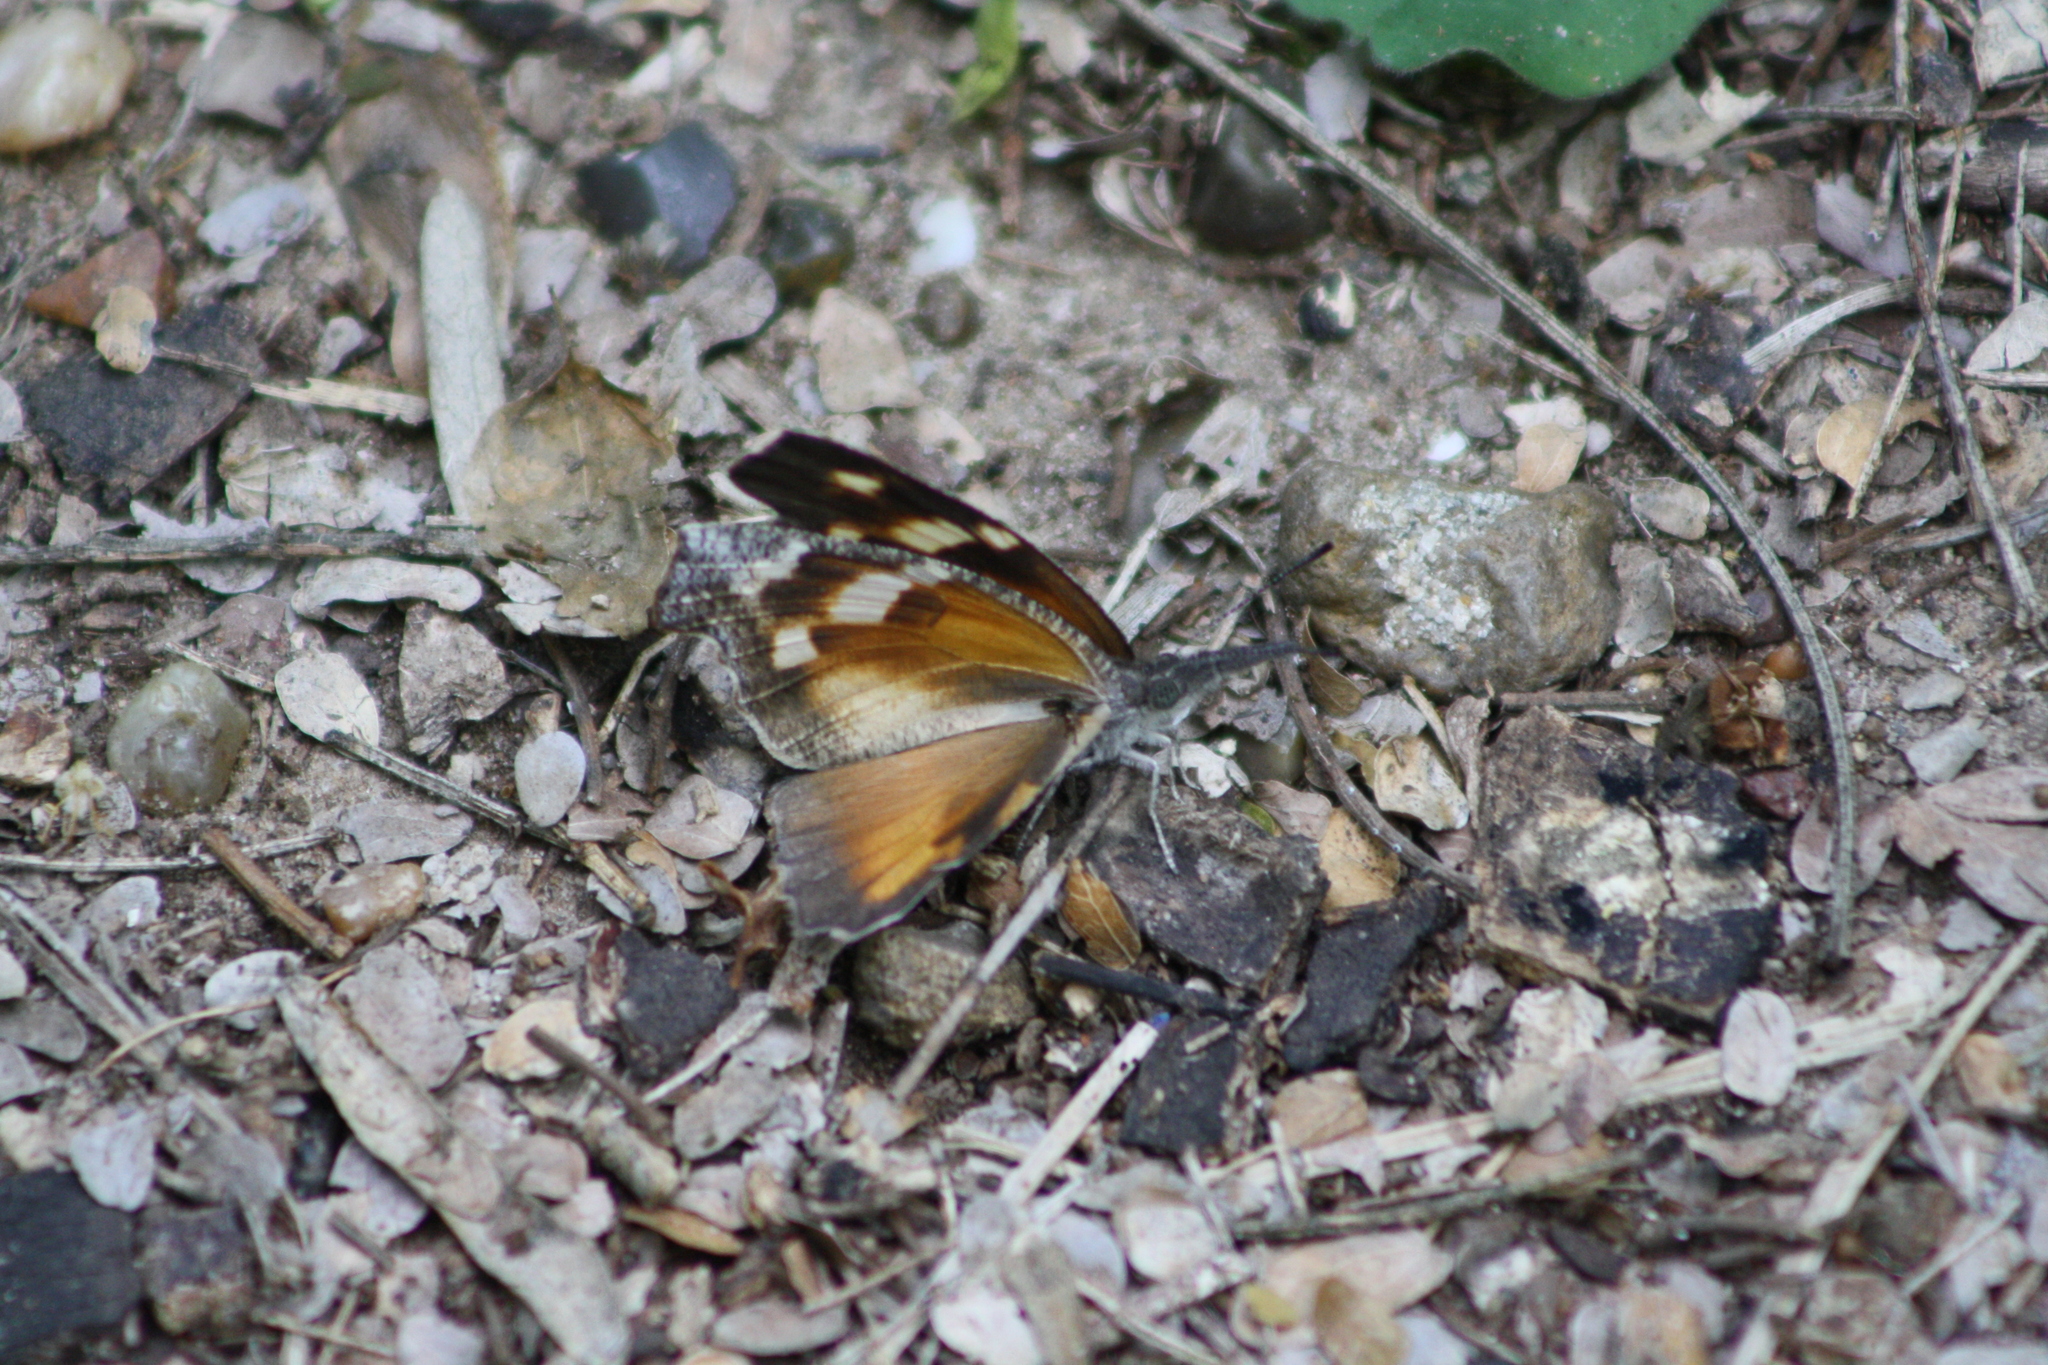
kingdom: Animalia
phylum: Arthropoda
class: Insecta
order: Lepidoptera
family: Nymphalidae
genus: Libytheana
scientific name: Libytheana carinenta
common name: American snout
